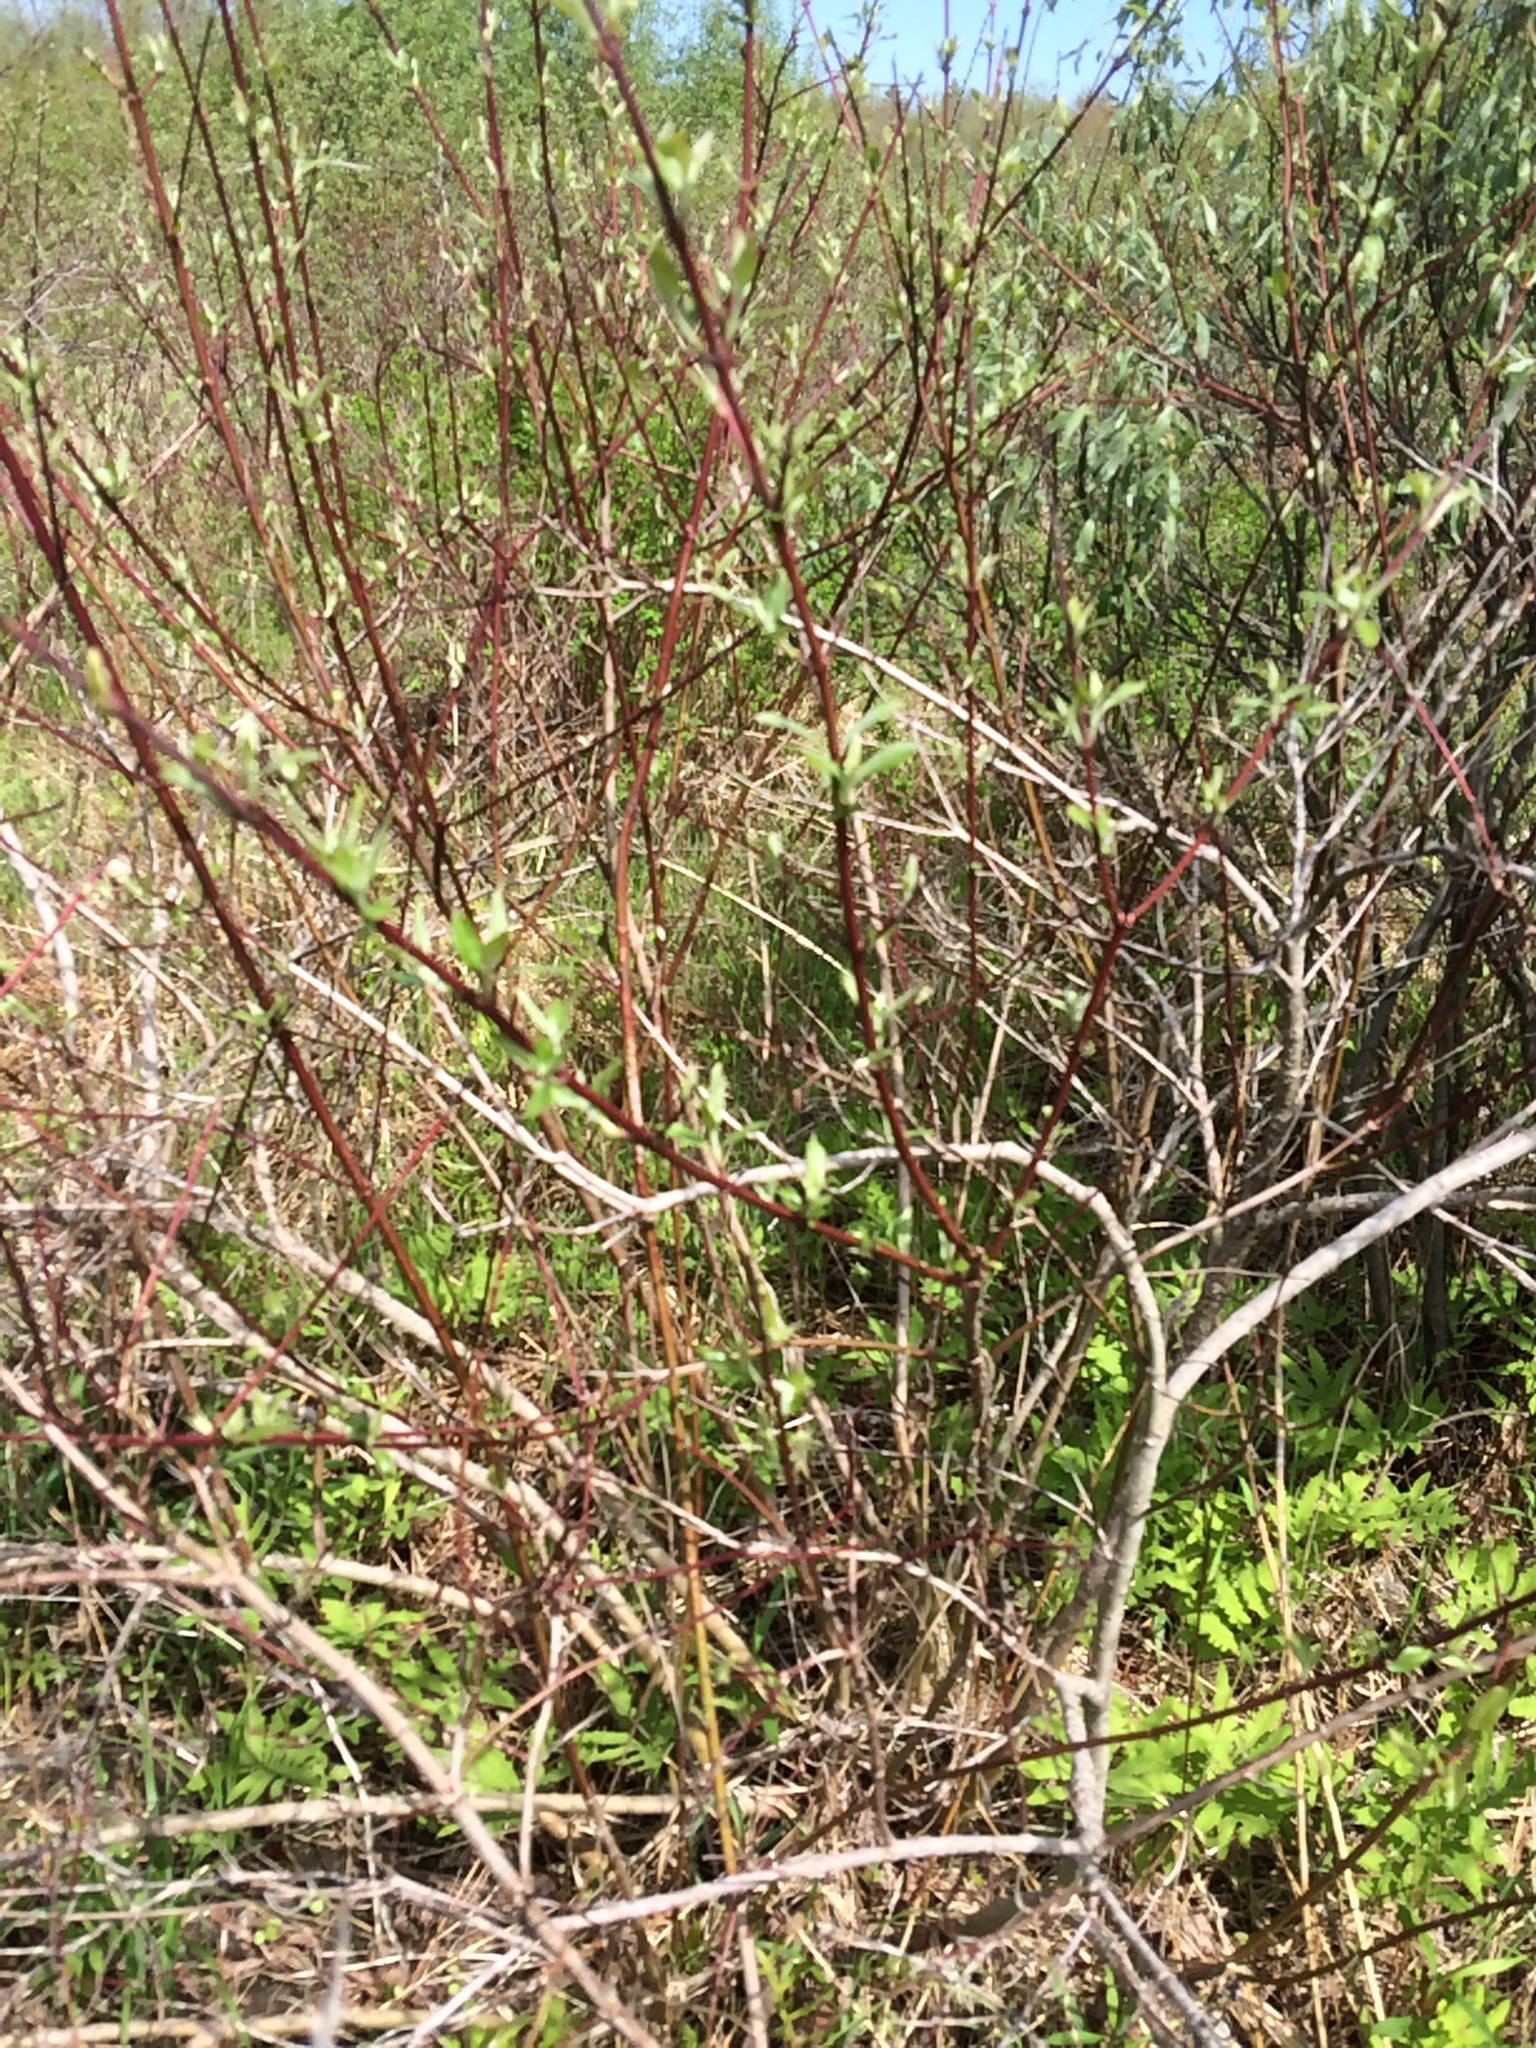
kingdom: Plantae
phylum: Tracheophyta
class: Magnoliopsida
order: Cornales
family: Cornaceae
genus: Cornus
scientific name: Cornus sericea
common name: Red-osier dogwood
